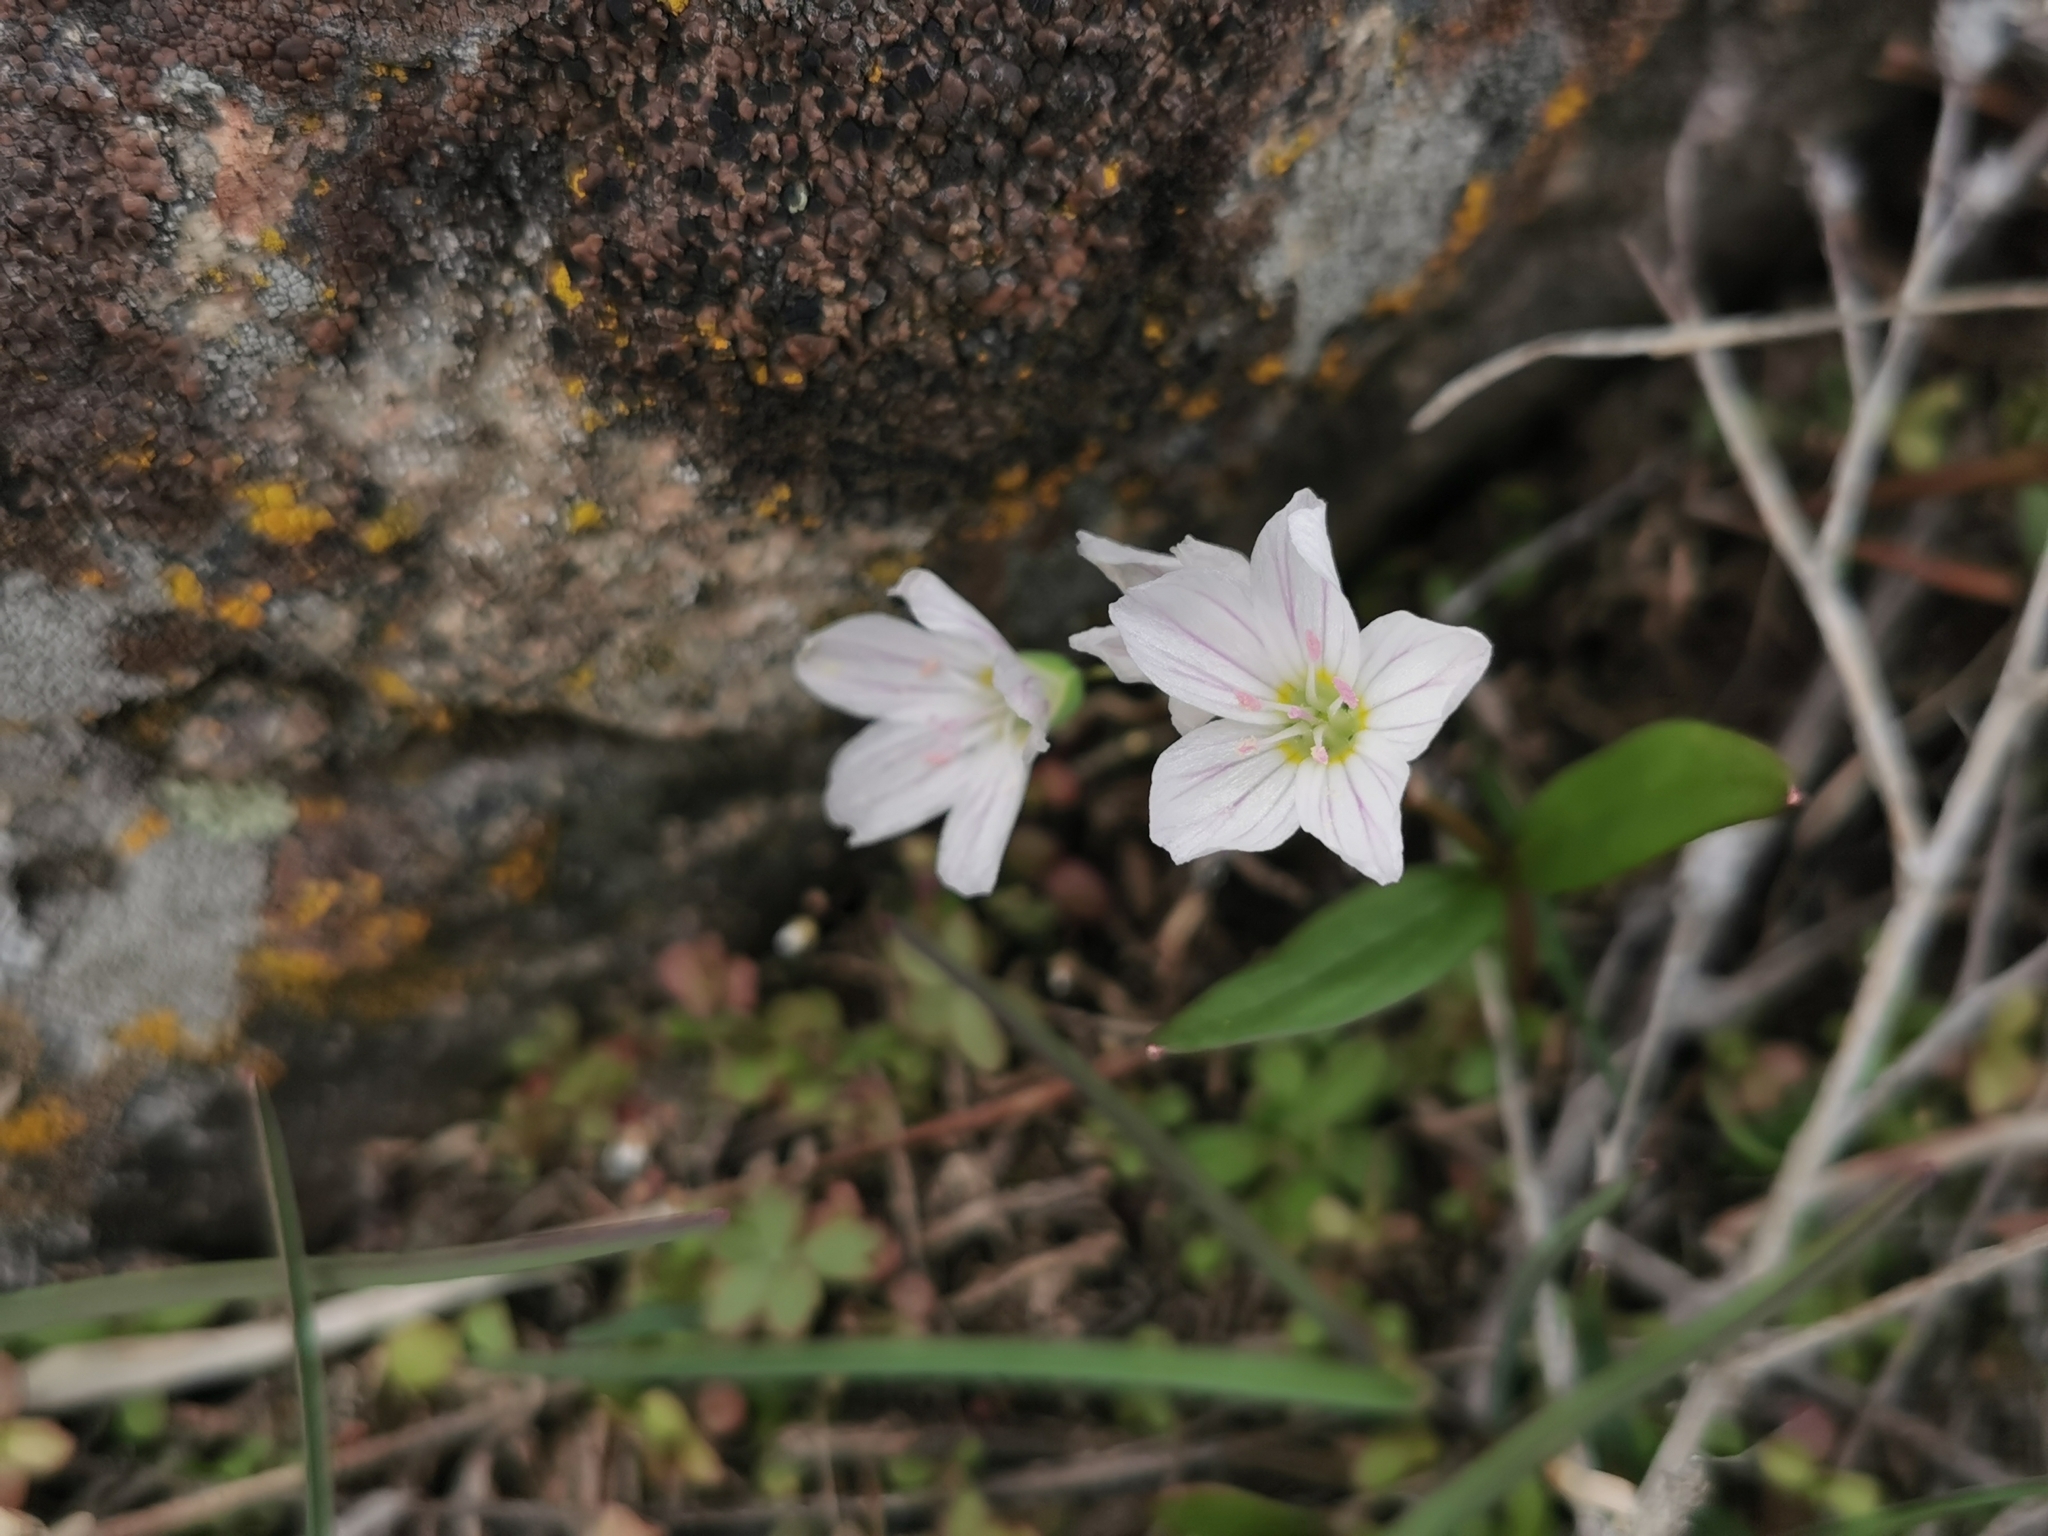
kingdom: Plantae
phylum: Tracheophyta
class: Magnoliopsida
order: Caryophyllales
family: Montiaceae
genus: Claytonia
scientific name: Claytonia lanceolata
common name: Western spring-beauty
